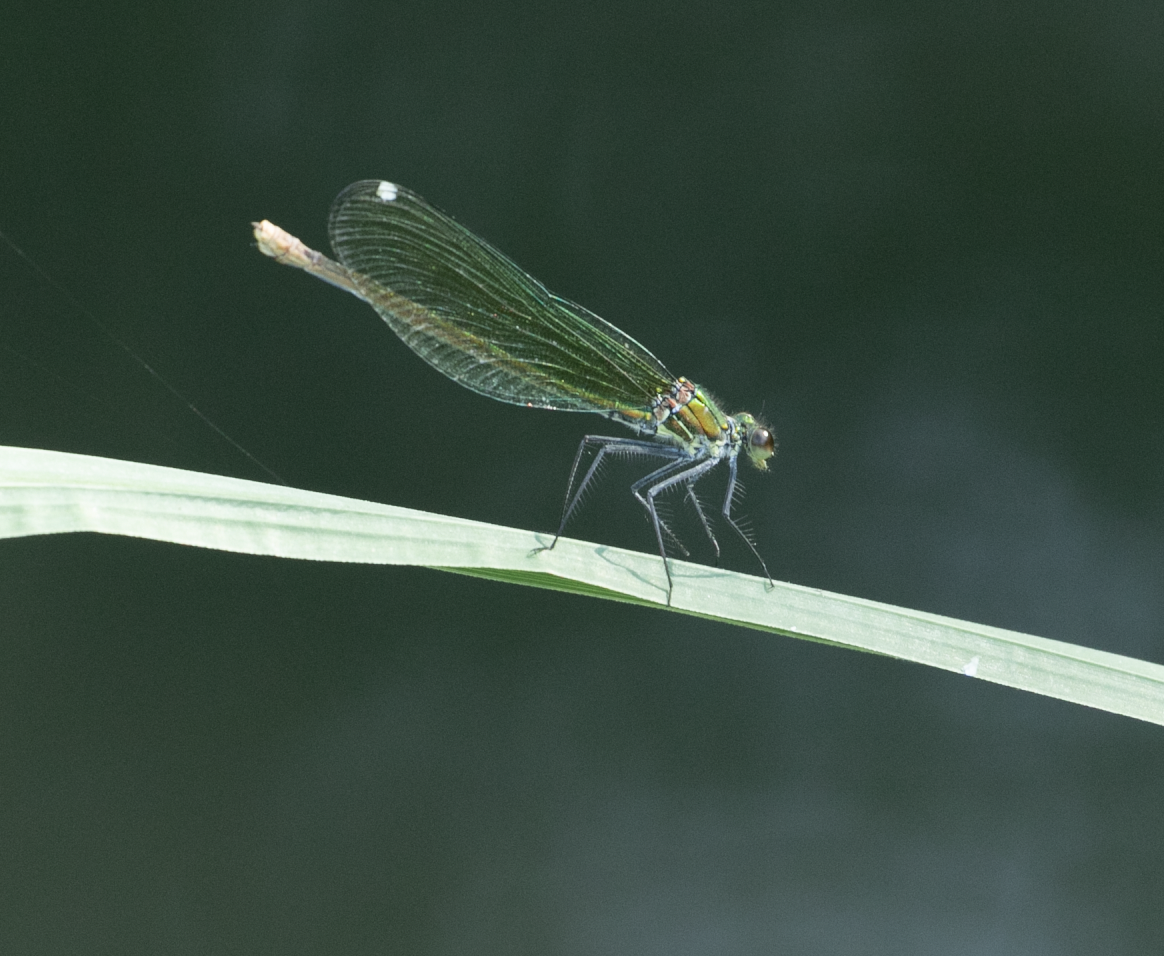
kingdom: Animalia
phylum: Arthropoda
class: Insecta
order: Odonata
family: Calopterygidae
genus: Calopteryx
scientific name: Calopteryx splendens
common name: Banded demoiselle
